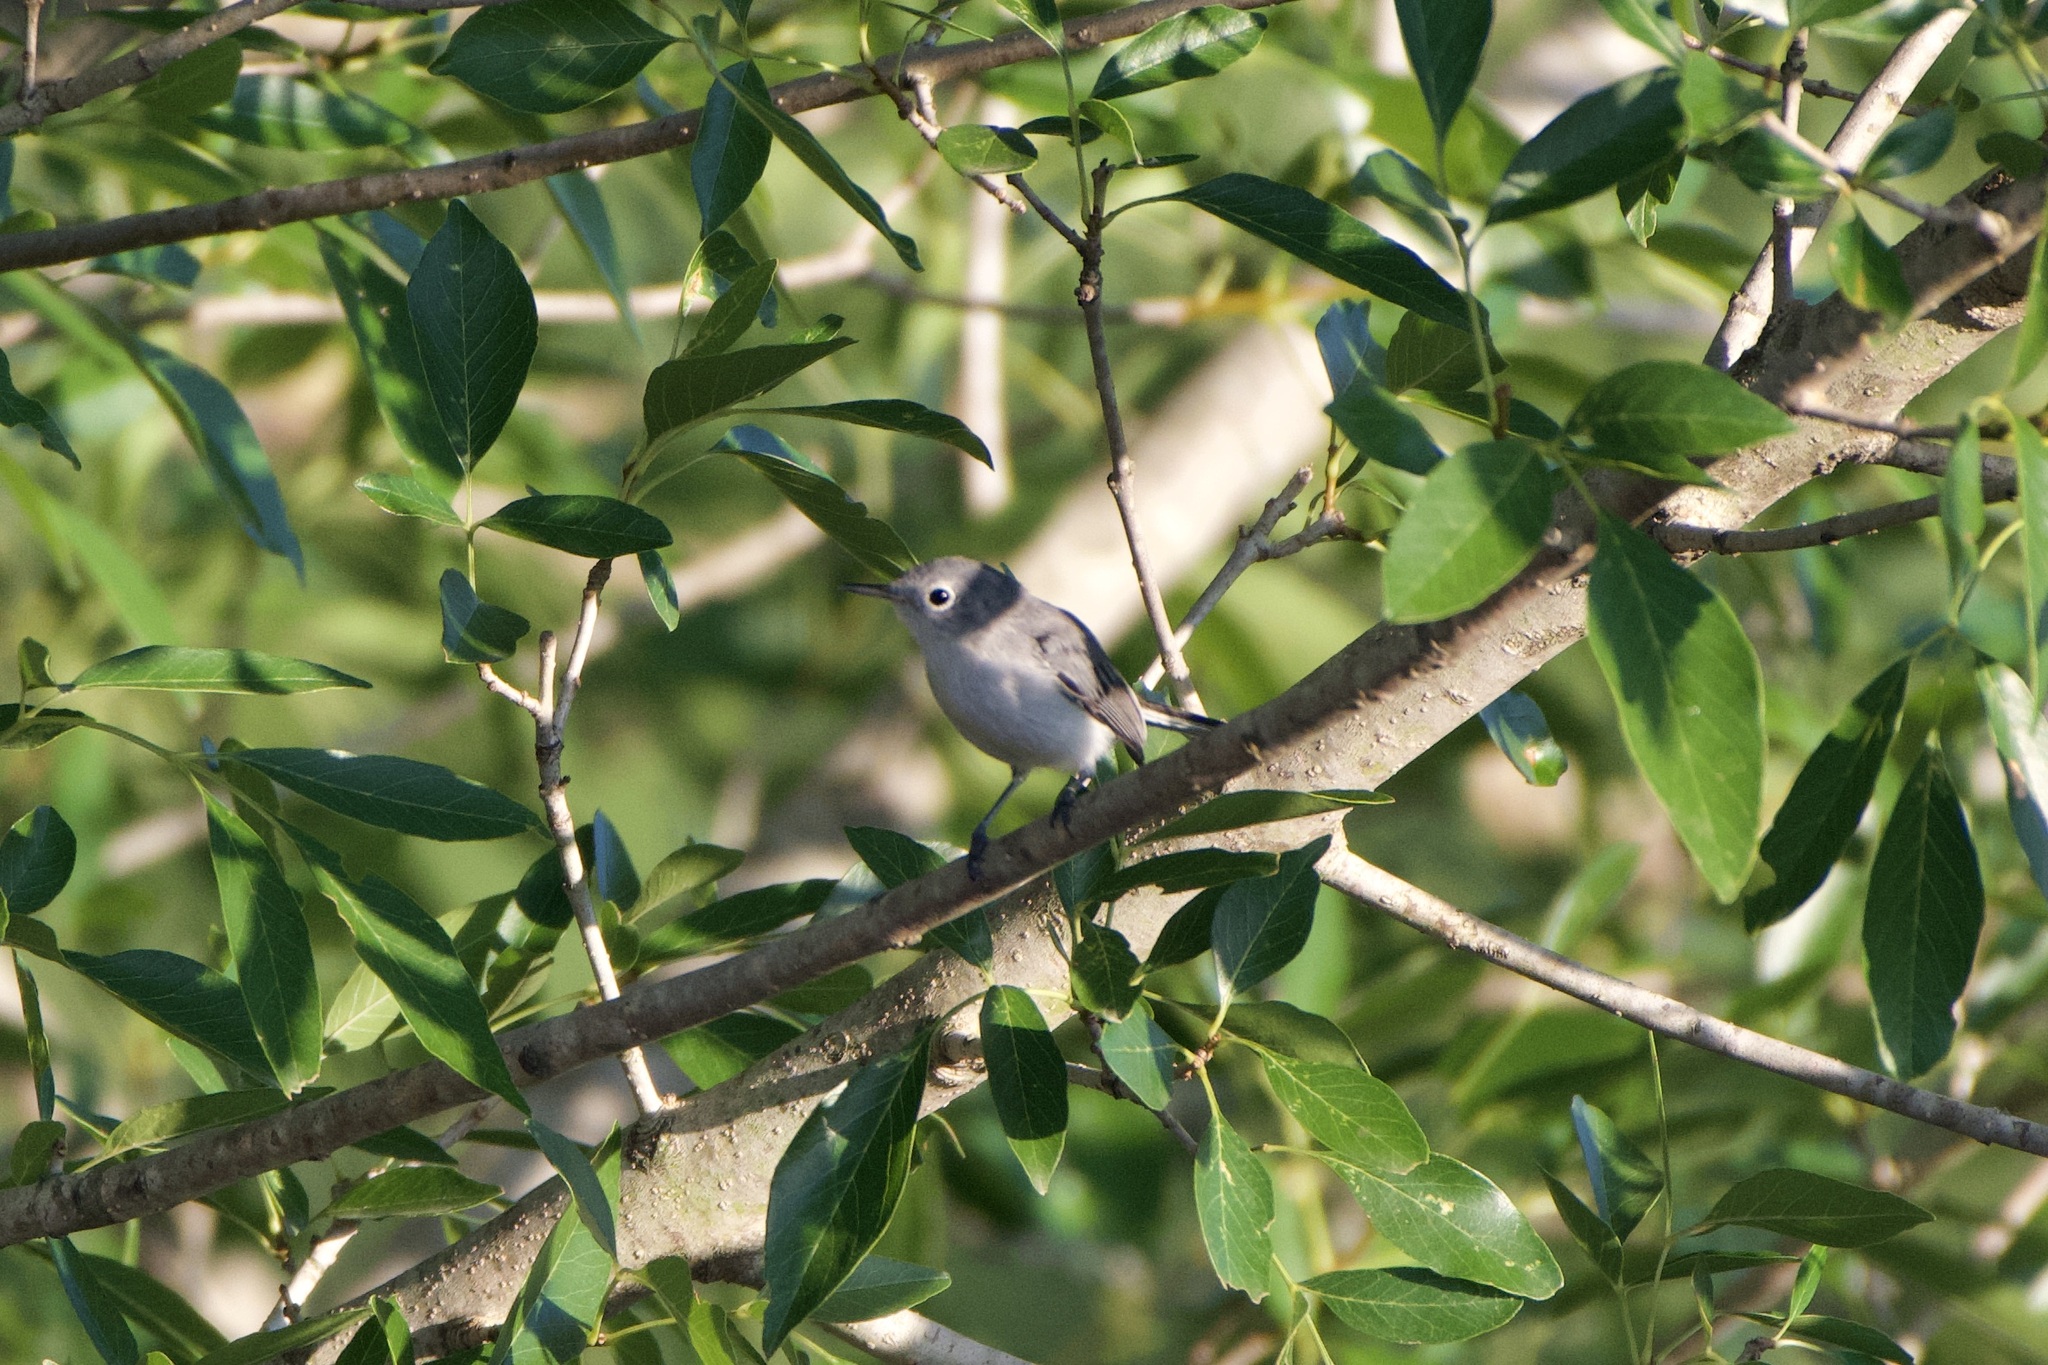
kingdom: Animalia
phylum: Chordata
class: Aves
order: Passeriformes
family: Polioptilidae
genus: Polioptila
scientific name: Polioptila caerulea
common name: Blue-gray gnatcatcher
